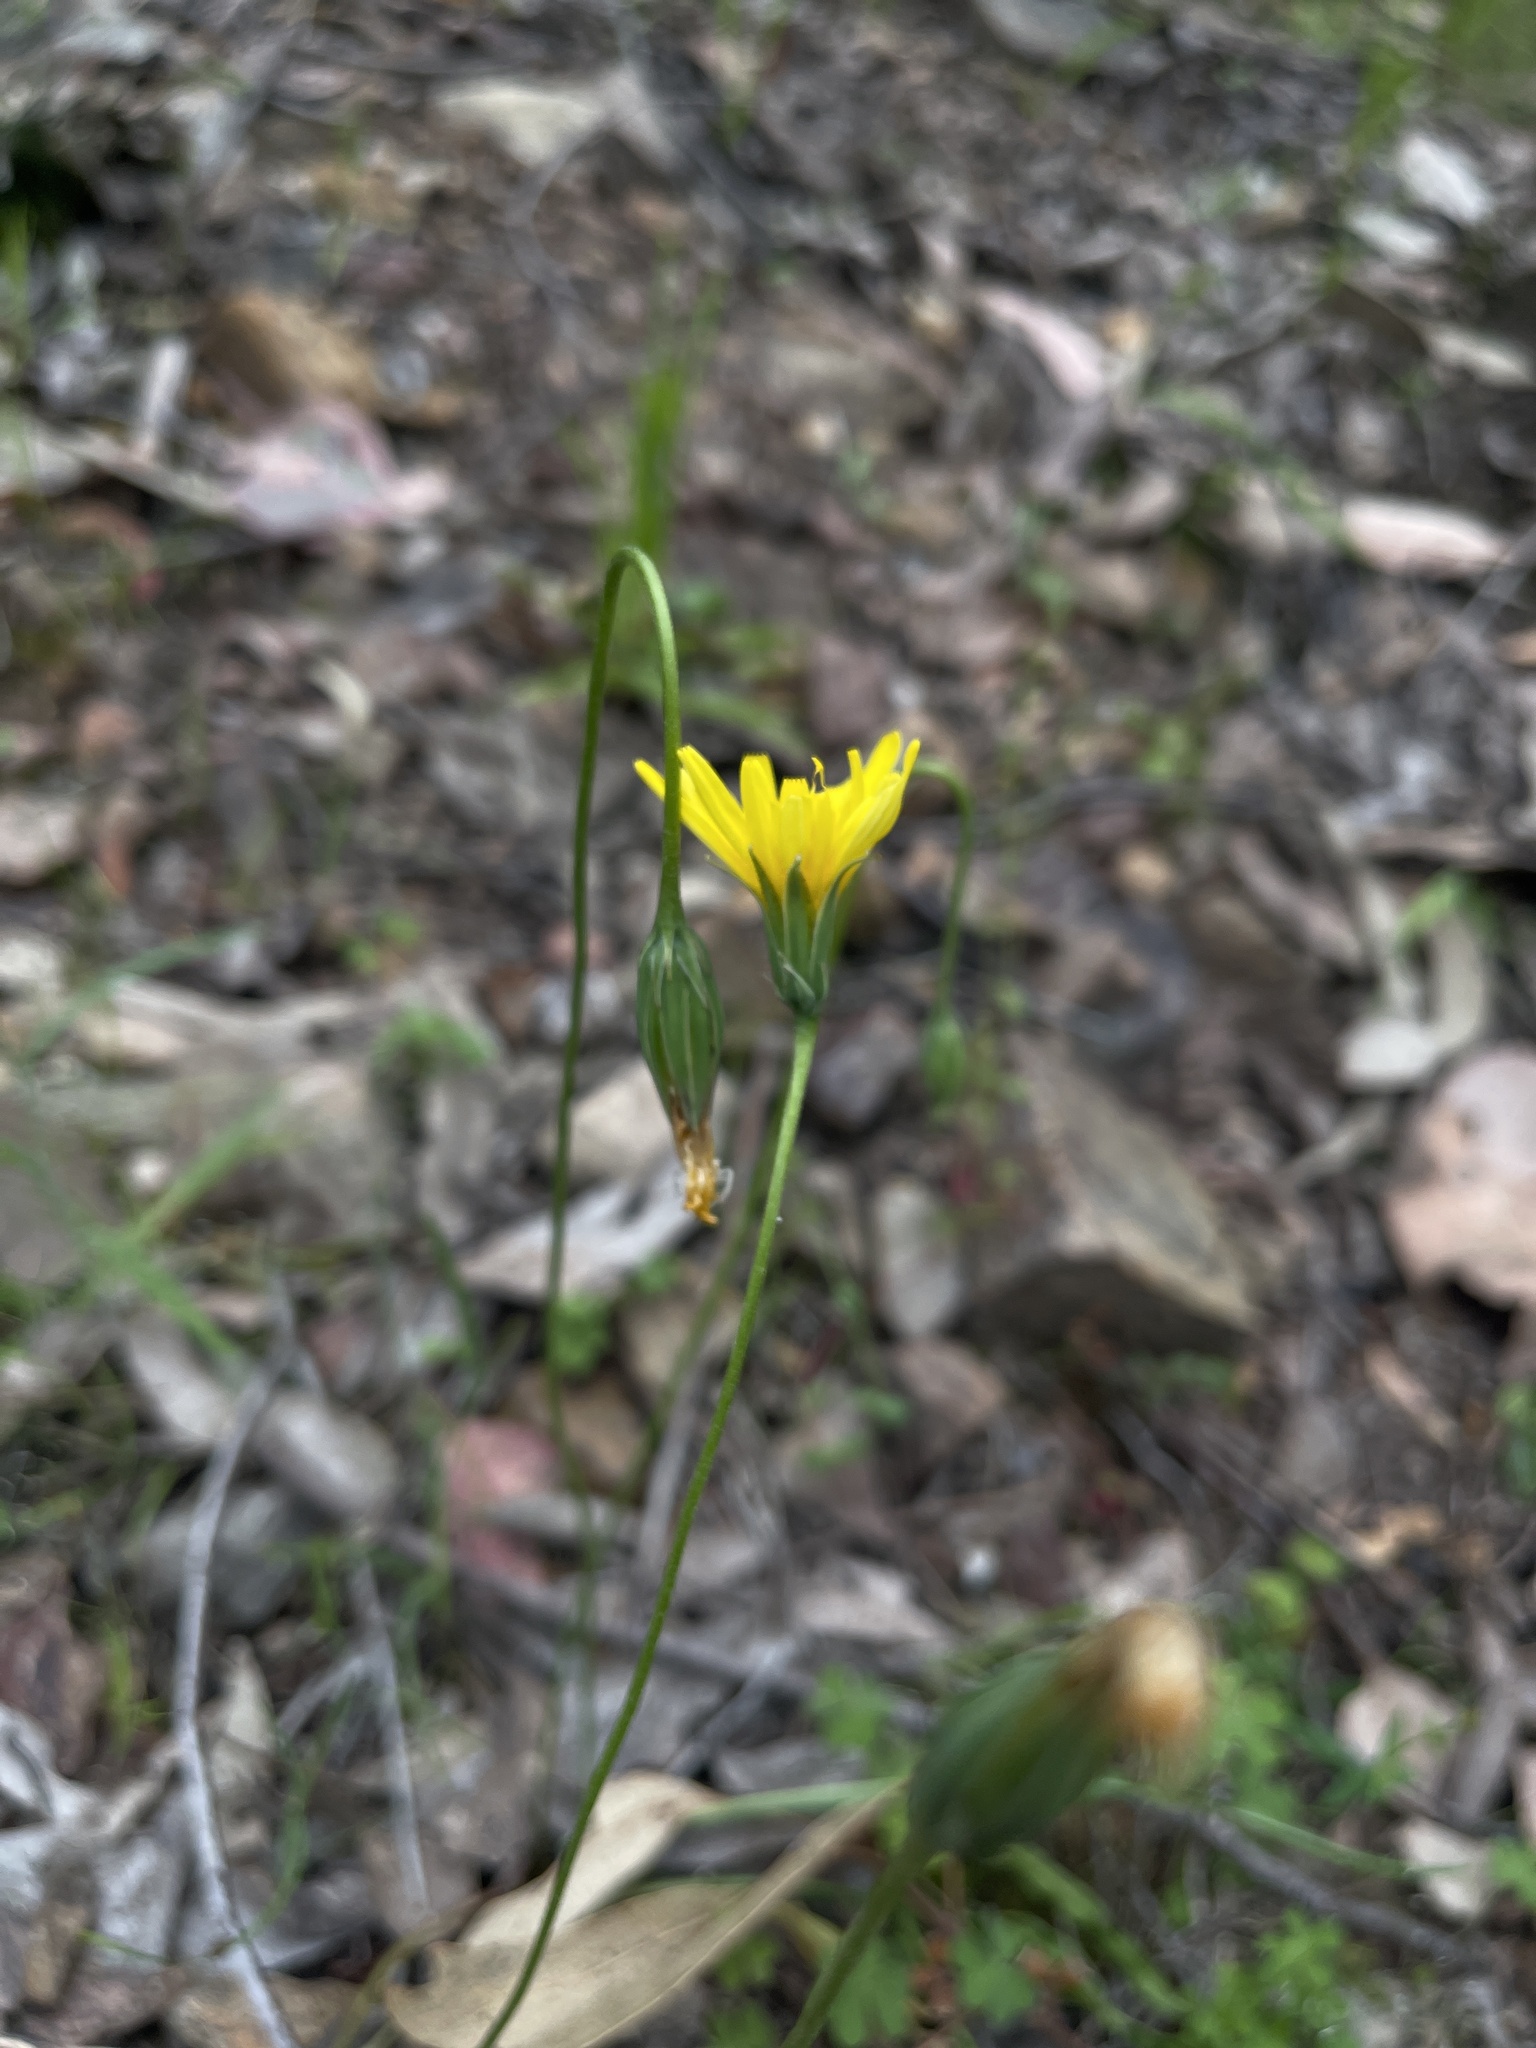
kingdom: Plantae
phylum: Tracheophyta
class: Magnoliopsida
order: Asterales
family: Asteraceae
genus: Microseris
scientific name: Microseris lanceolata
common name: Yam daisy
